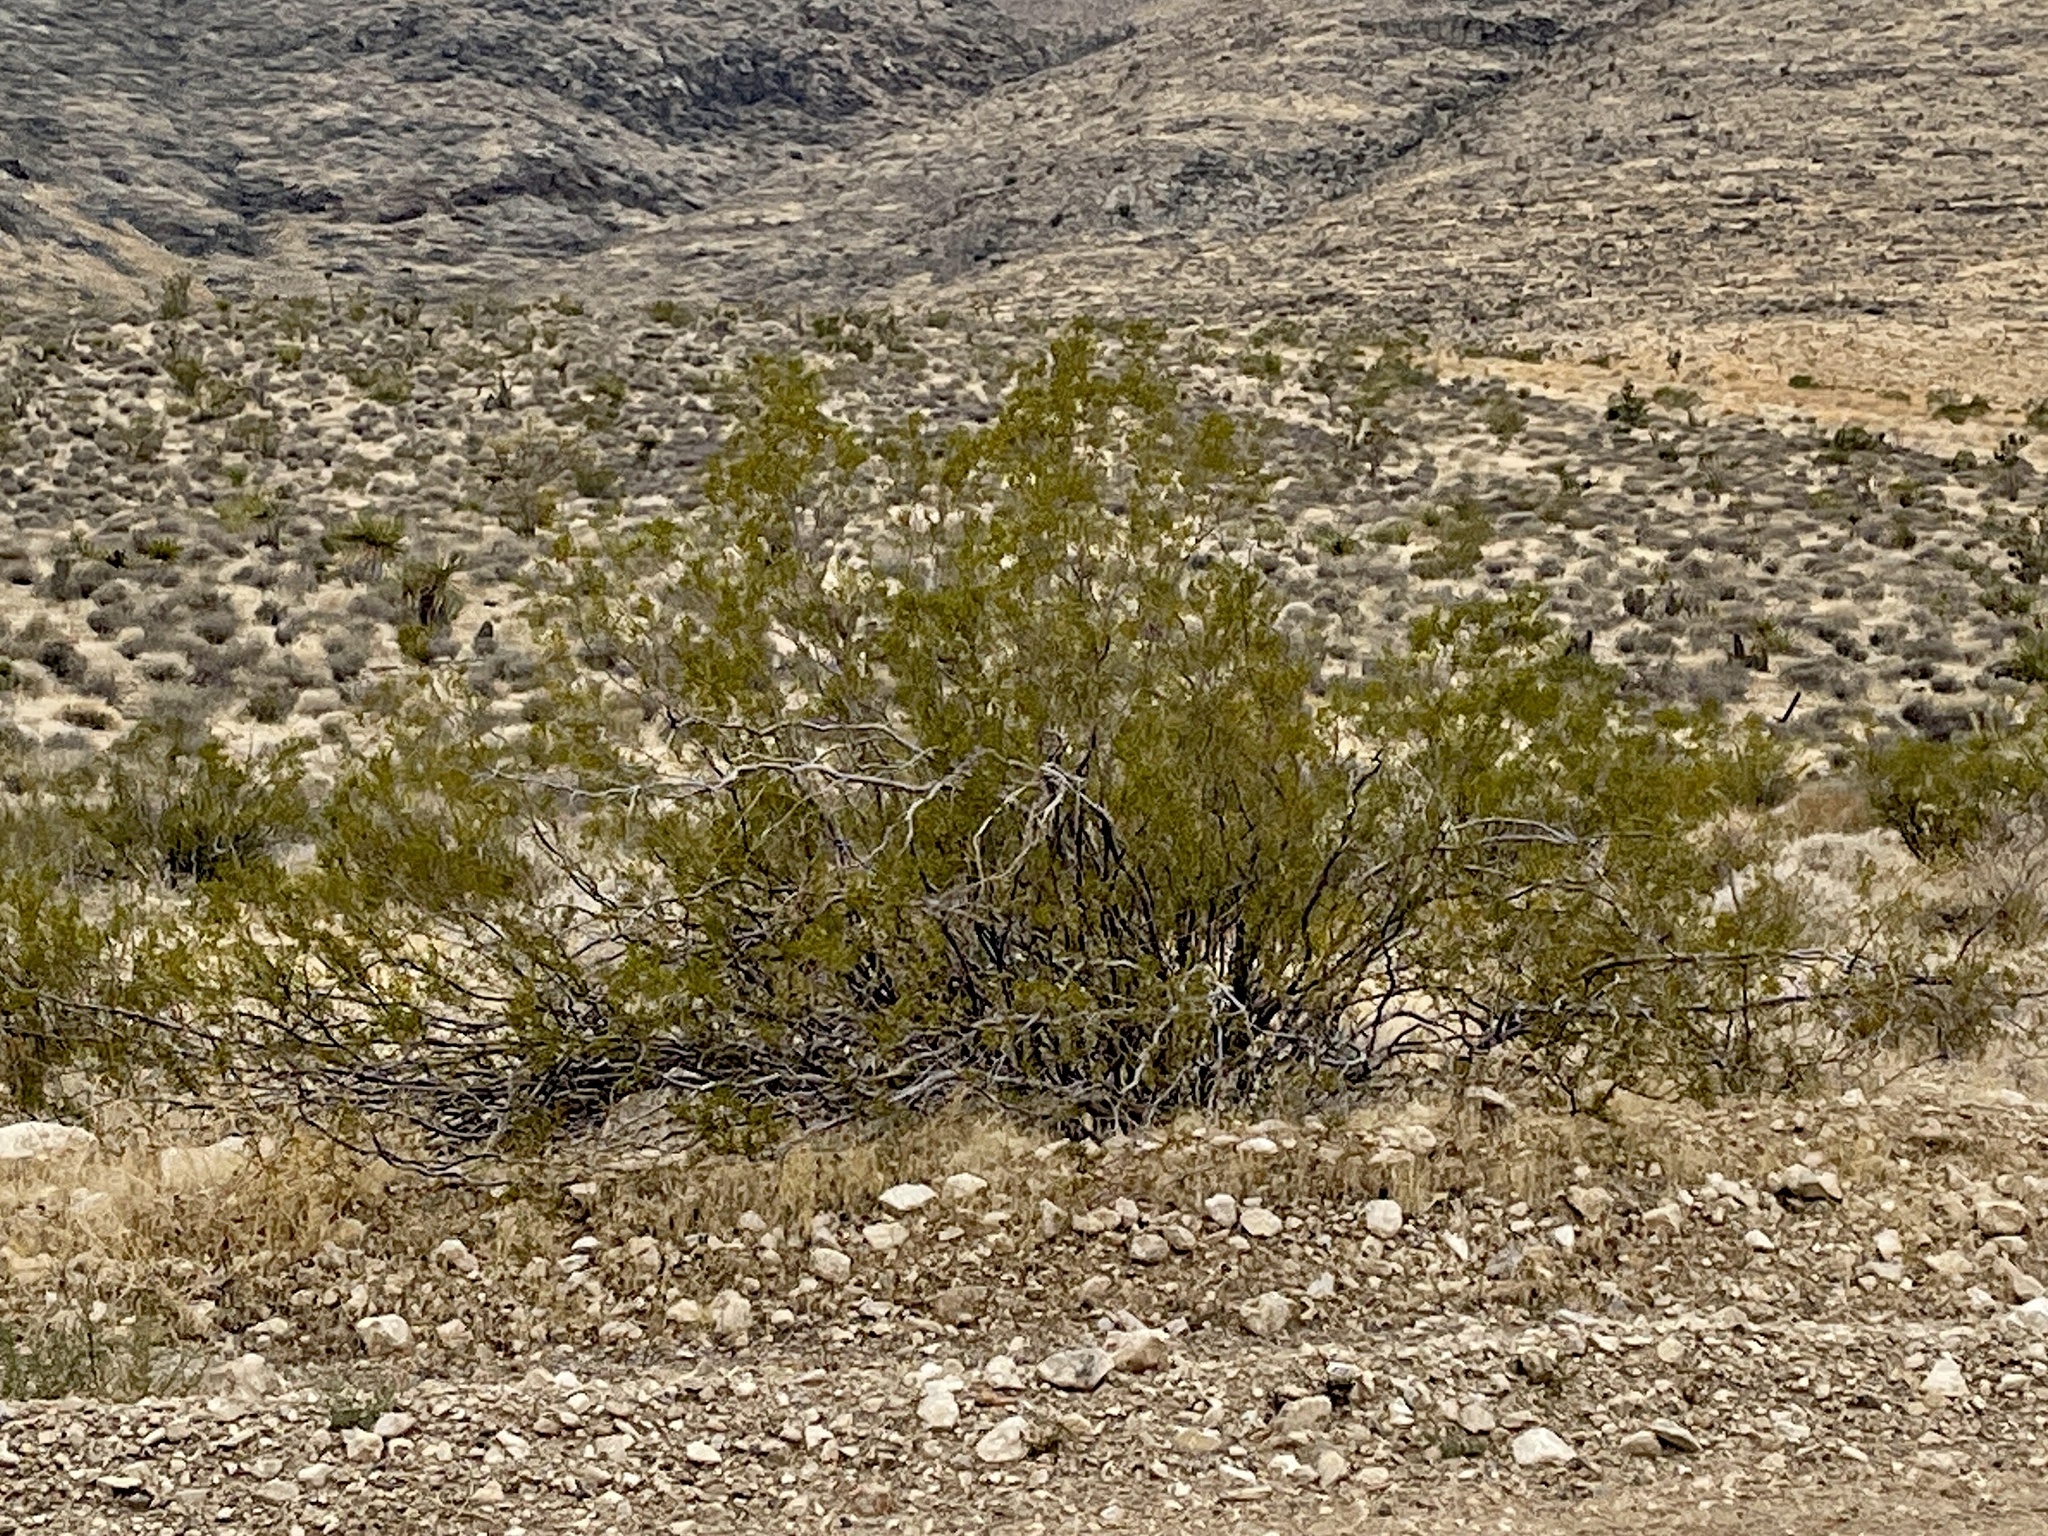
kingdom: Plantae
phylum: Tracheophyta
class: Magnoliopsida
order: Zygophyllales
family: Zygophyllaceae
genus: Larrea
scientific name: Larrea tridentata
